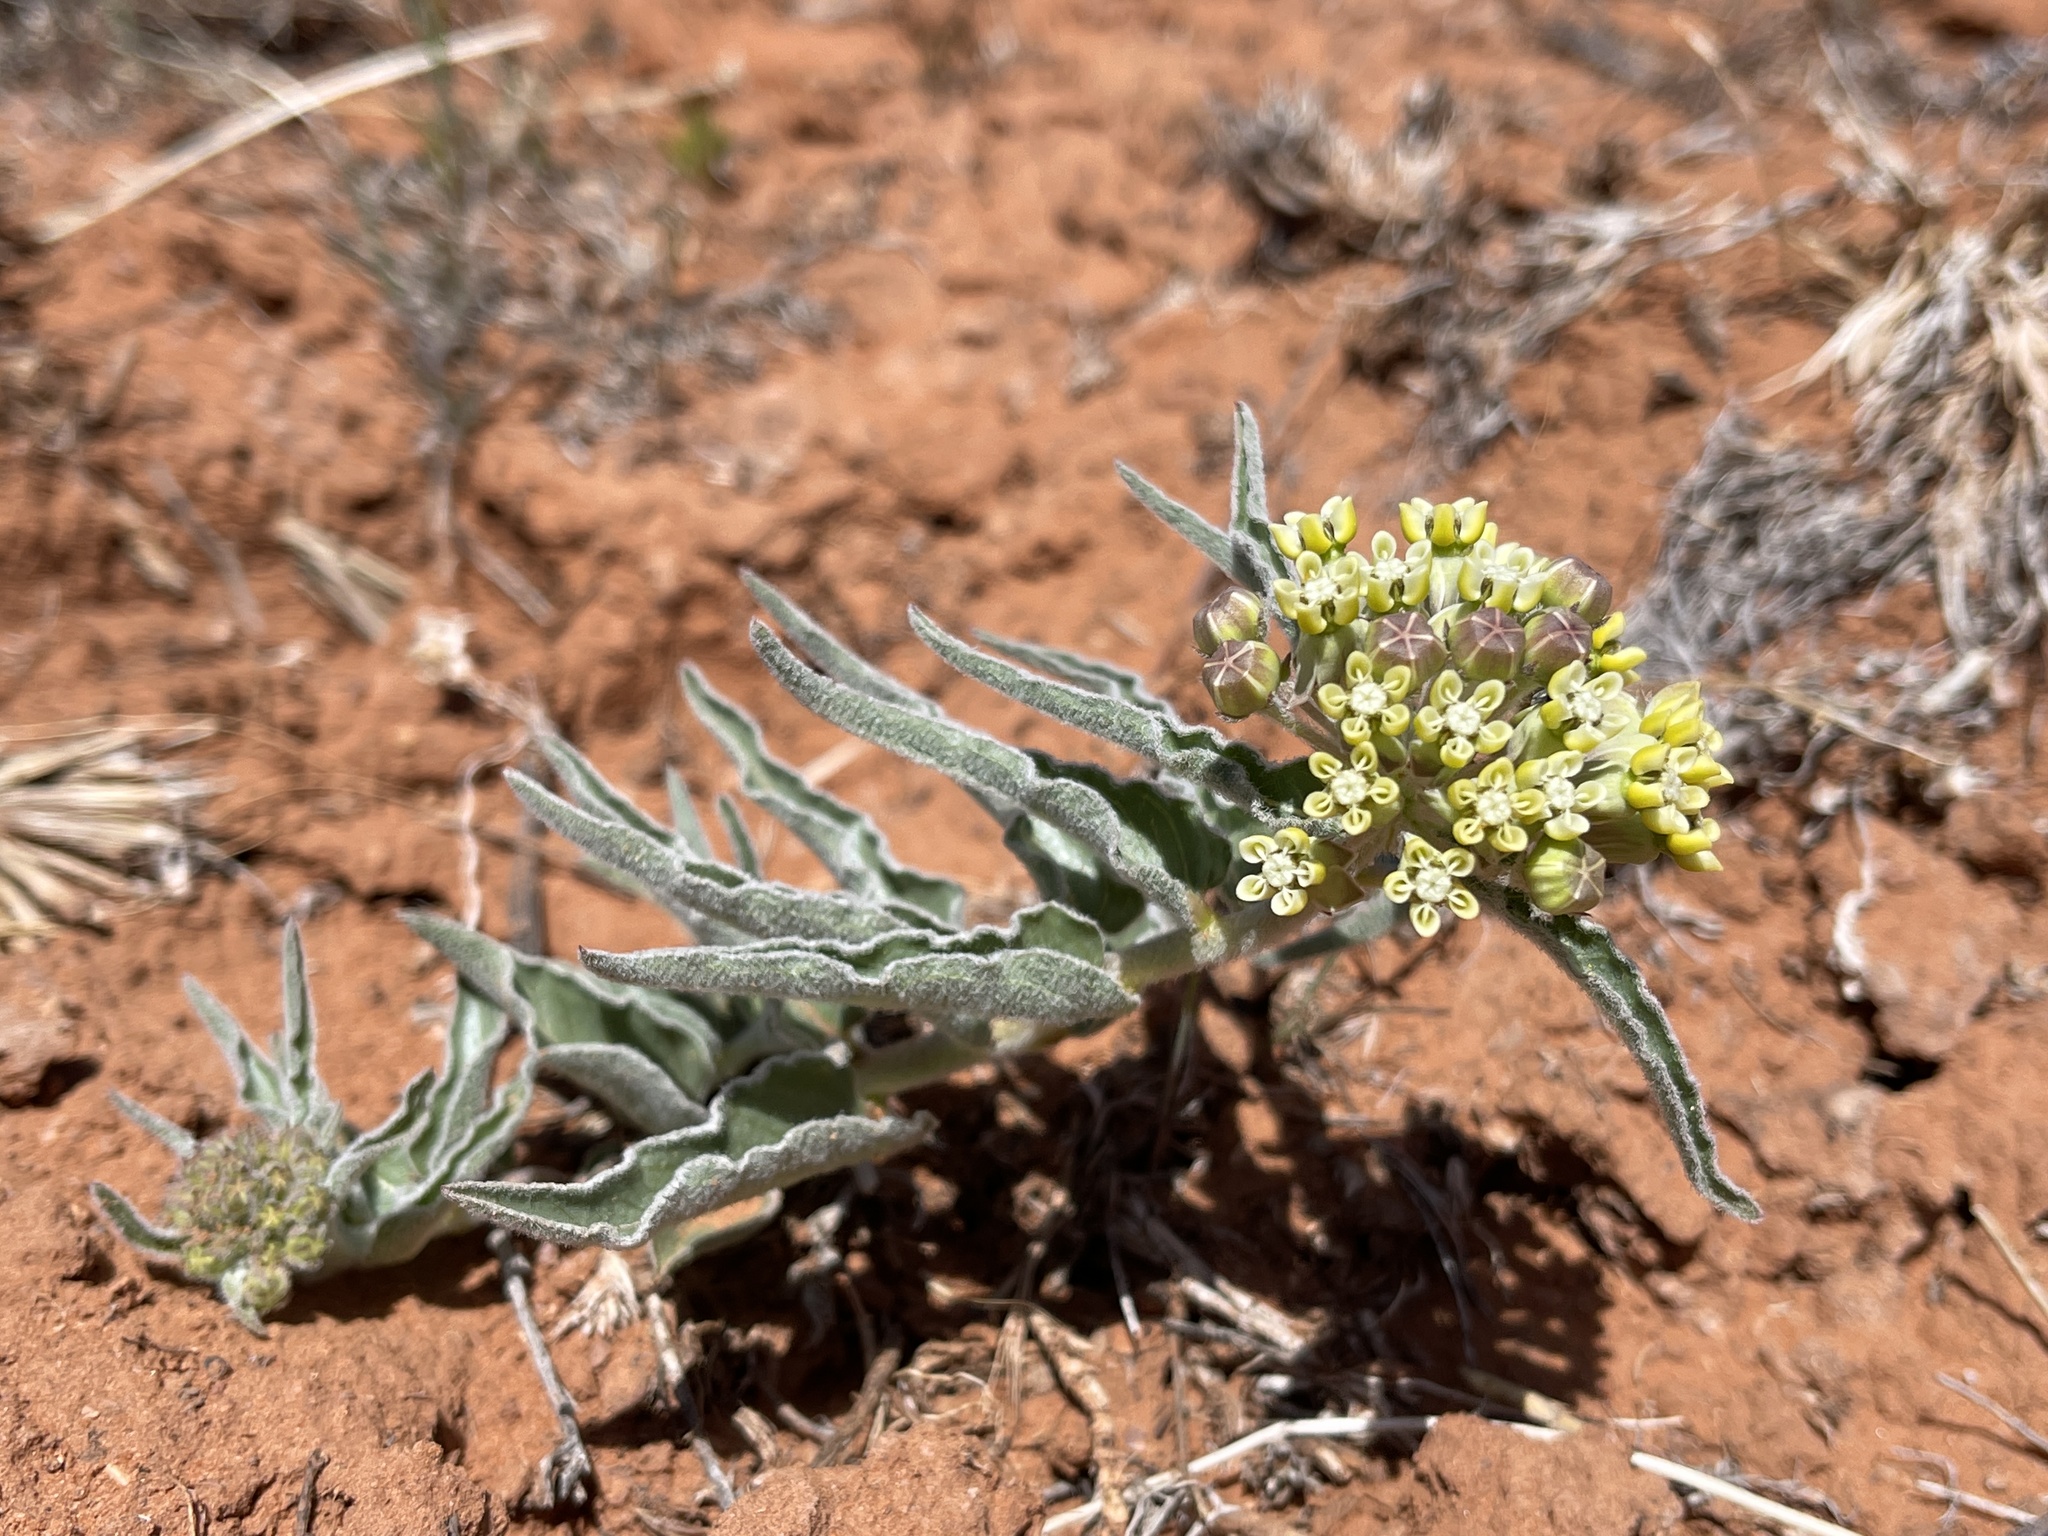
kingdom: Plantae
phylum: Tracheophyta
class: Magnoliopsida
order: Gentianales
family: Apocynaceae
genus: Asclepias
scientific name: Asclepias involucrata
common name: Dwarf milkweed
